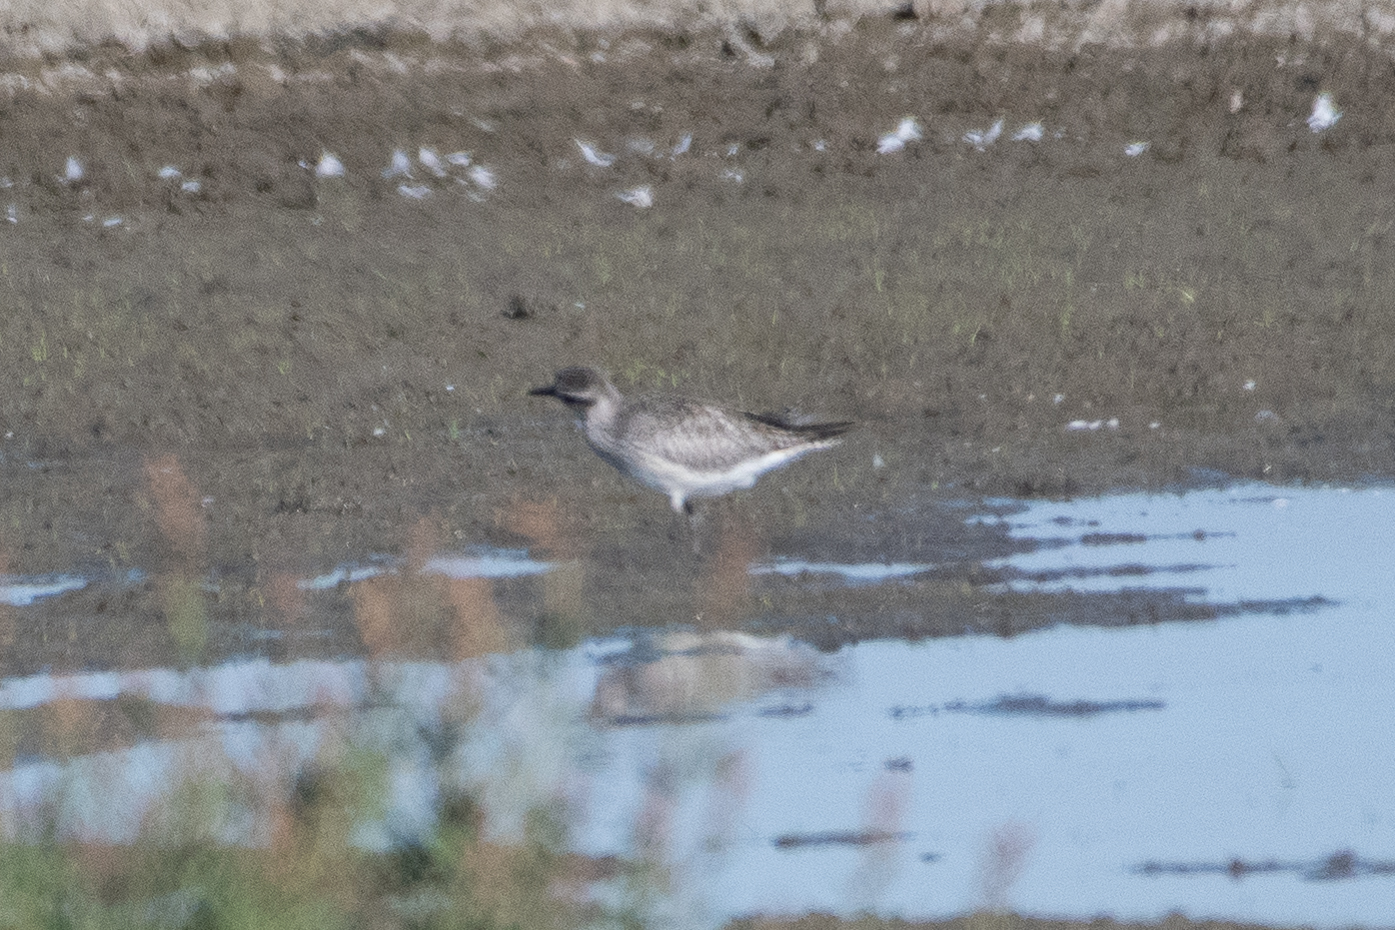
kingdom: Animalia
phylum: Chordata
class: Aves
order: Charadriiformes
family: Charadriidae
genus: Pluvialis
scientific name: Pluvialis squatarola
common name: Grey plover
